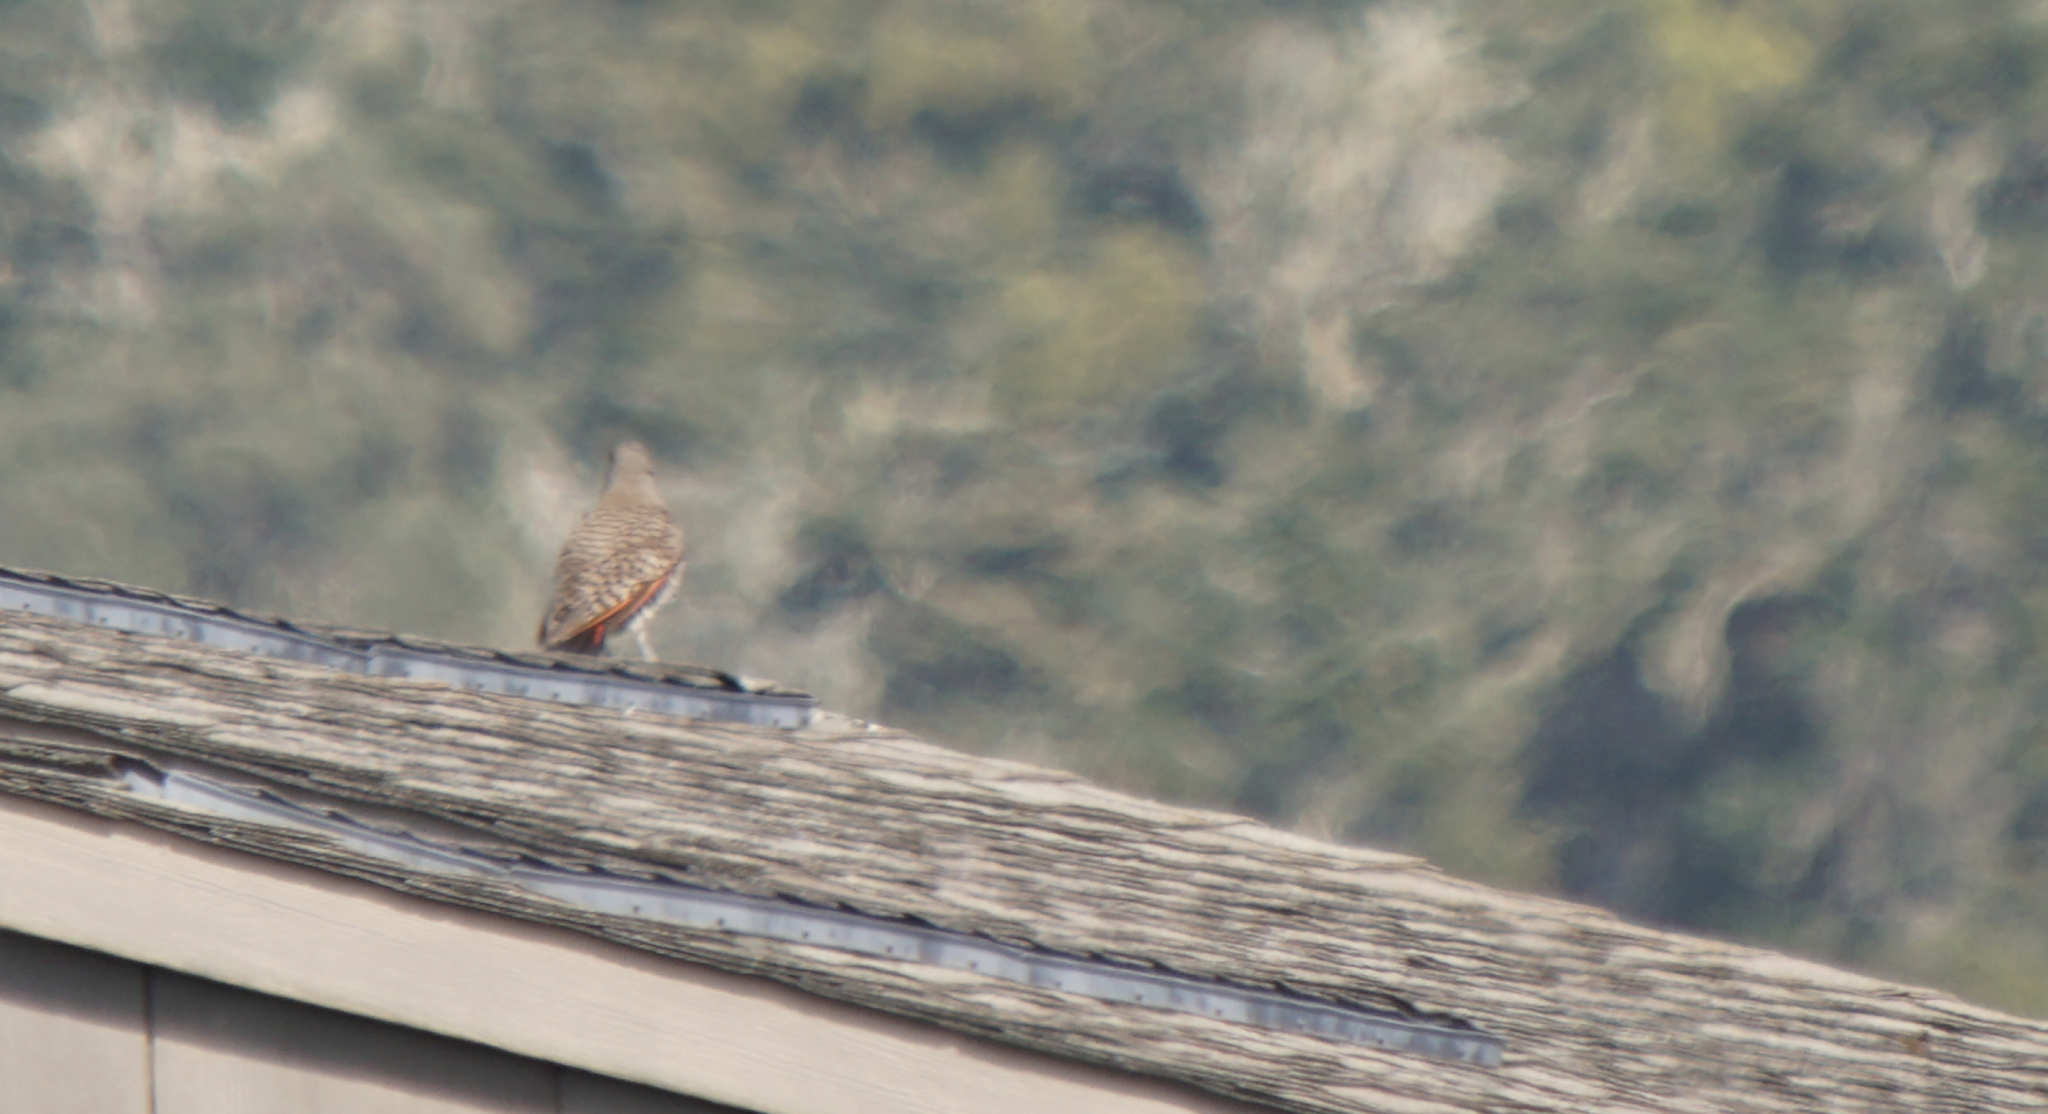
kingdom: Animalia
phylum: Chordata
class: Aves
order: Piciformes
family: Picidae
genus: Colaptes
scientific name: Colaptes auratus
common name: Northern flicker
